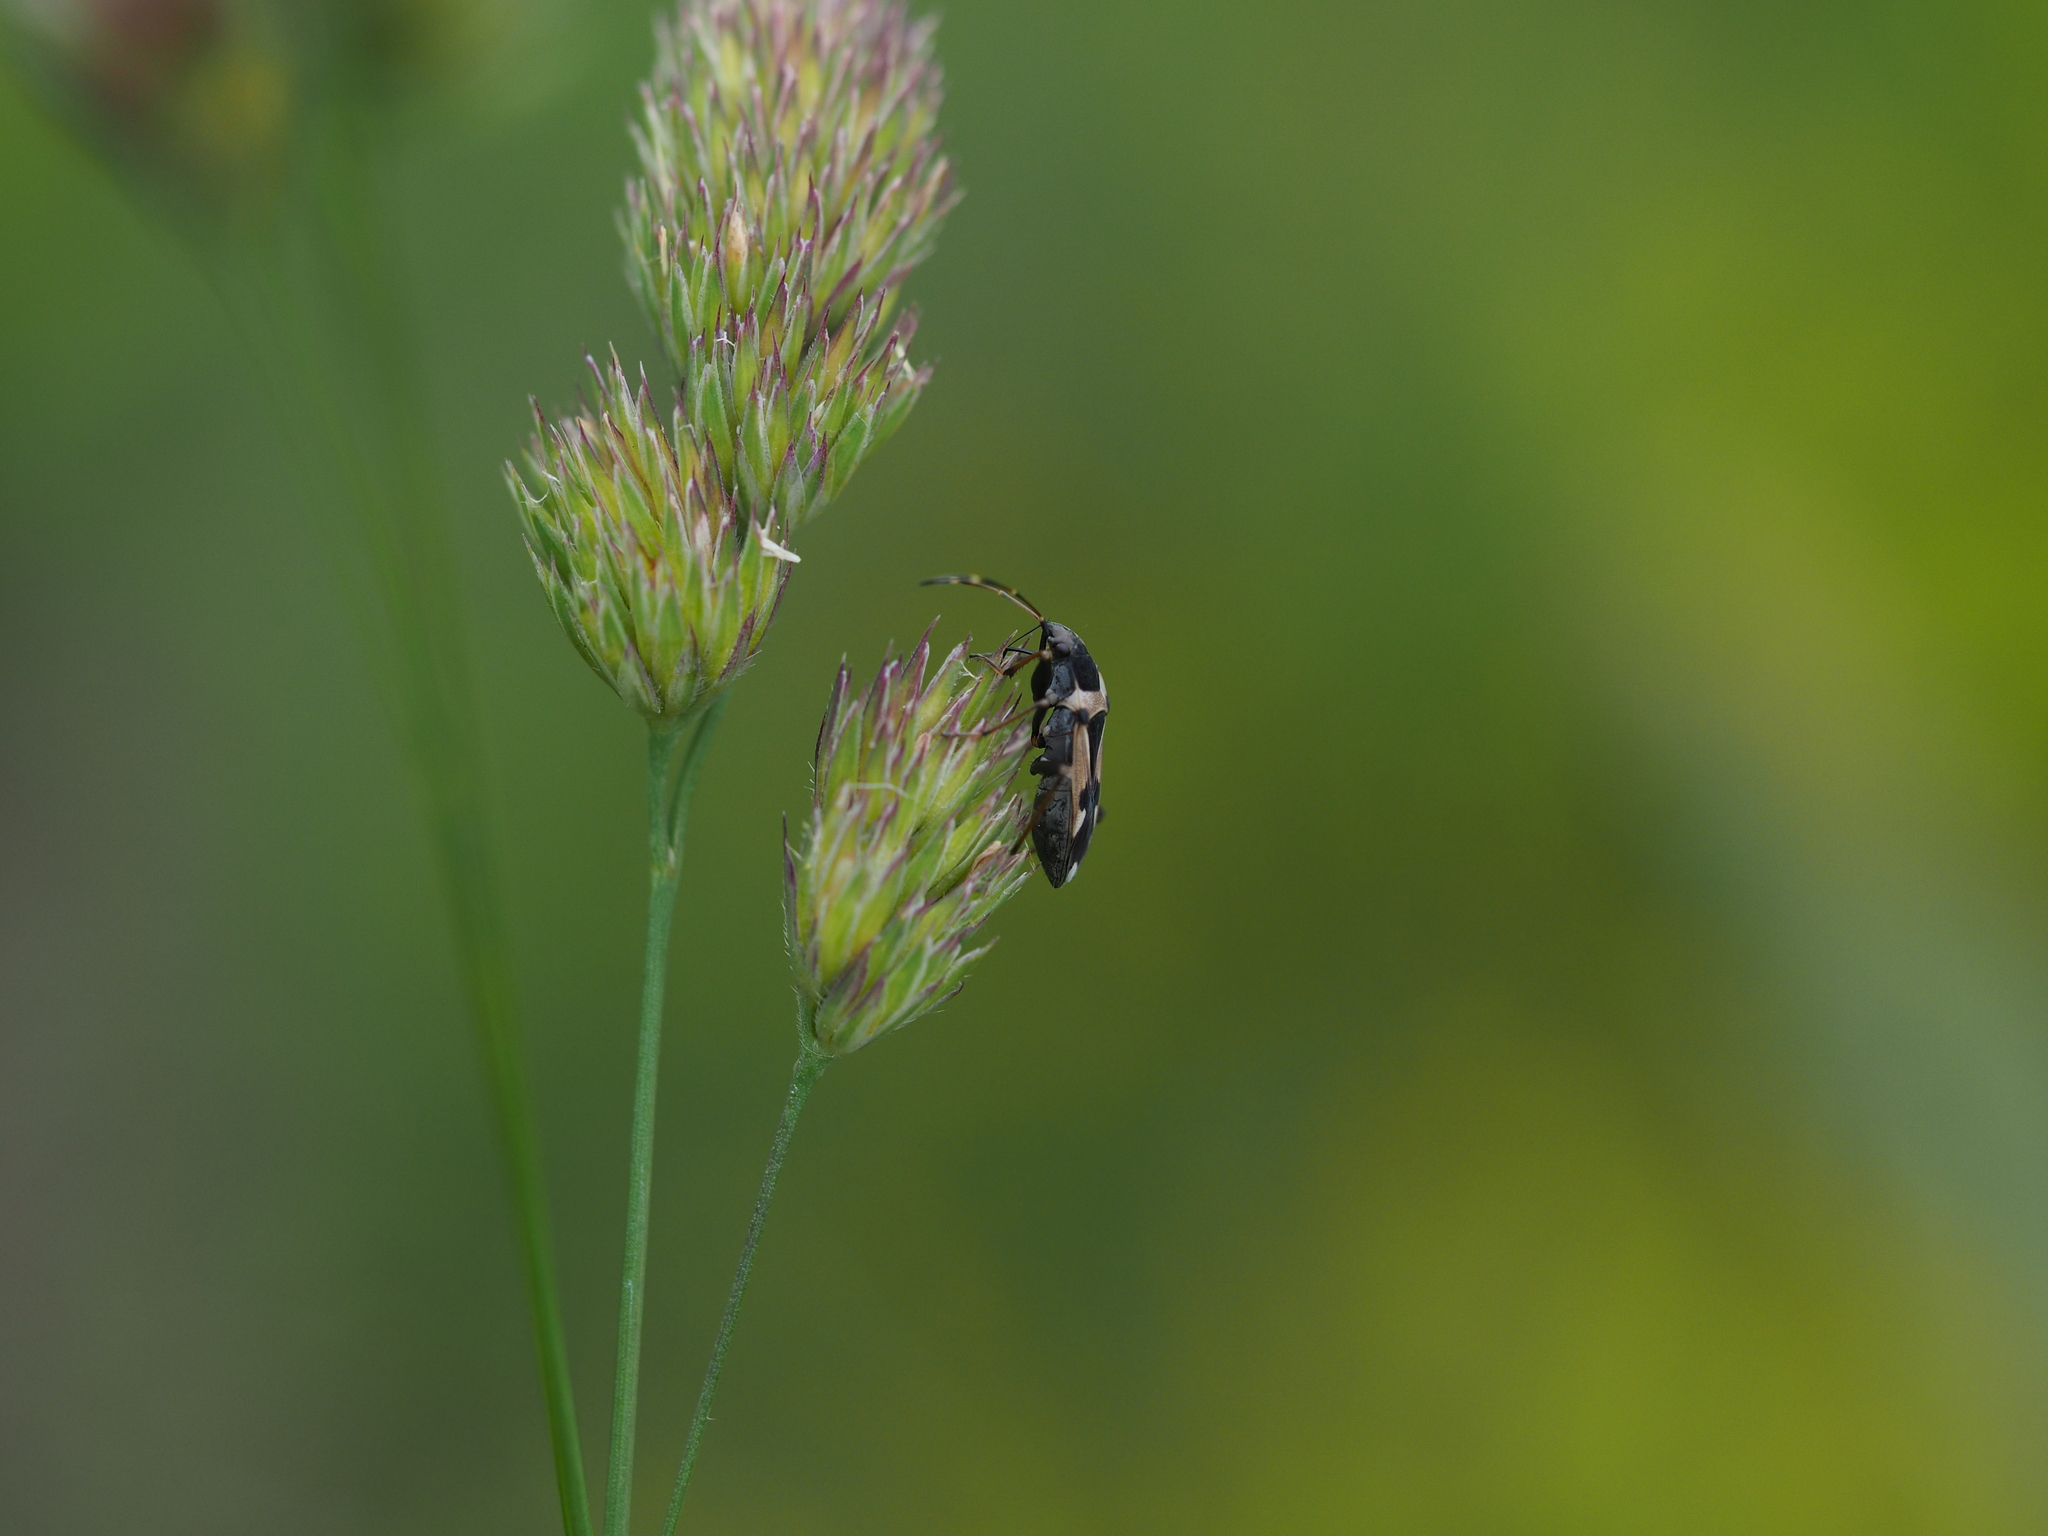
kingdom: Animalia
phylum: Arthropoda
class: Insecta
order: Hemiptera
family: Rhyparochromidae
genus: Raglius
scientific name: Raglius confusus
